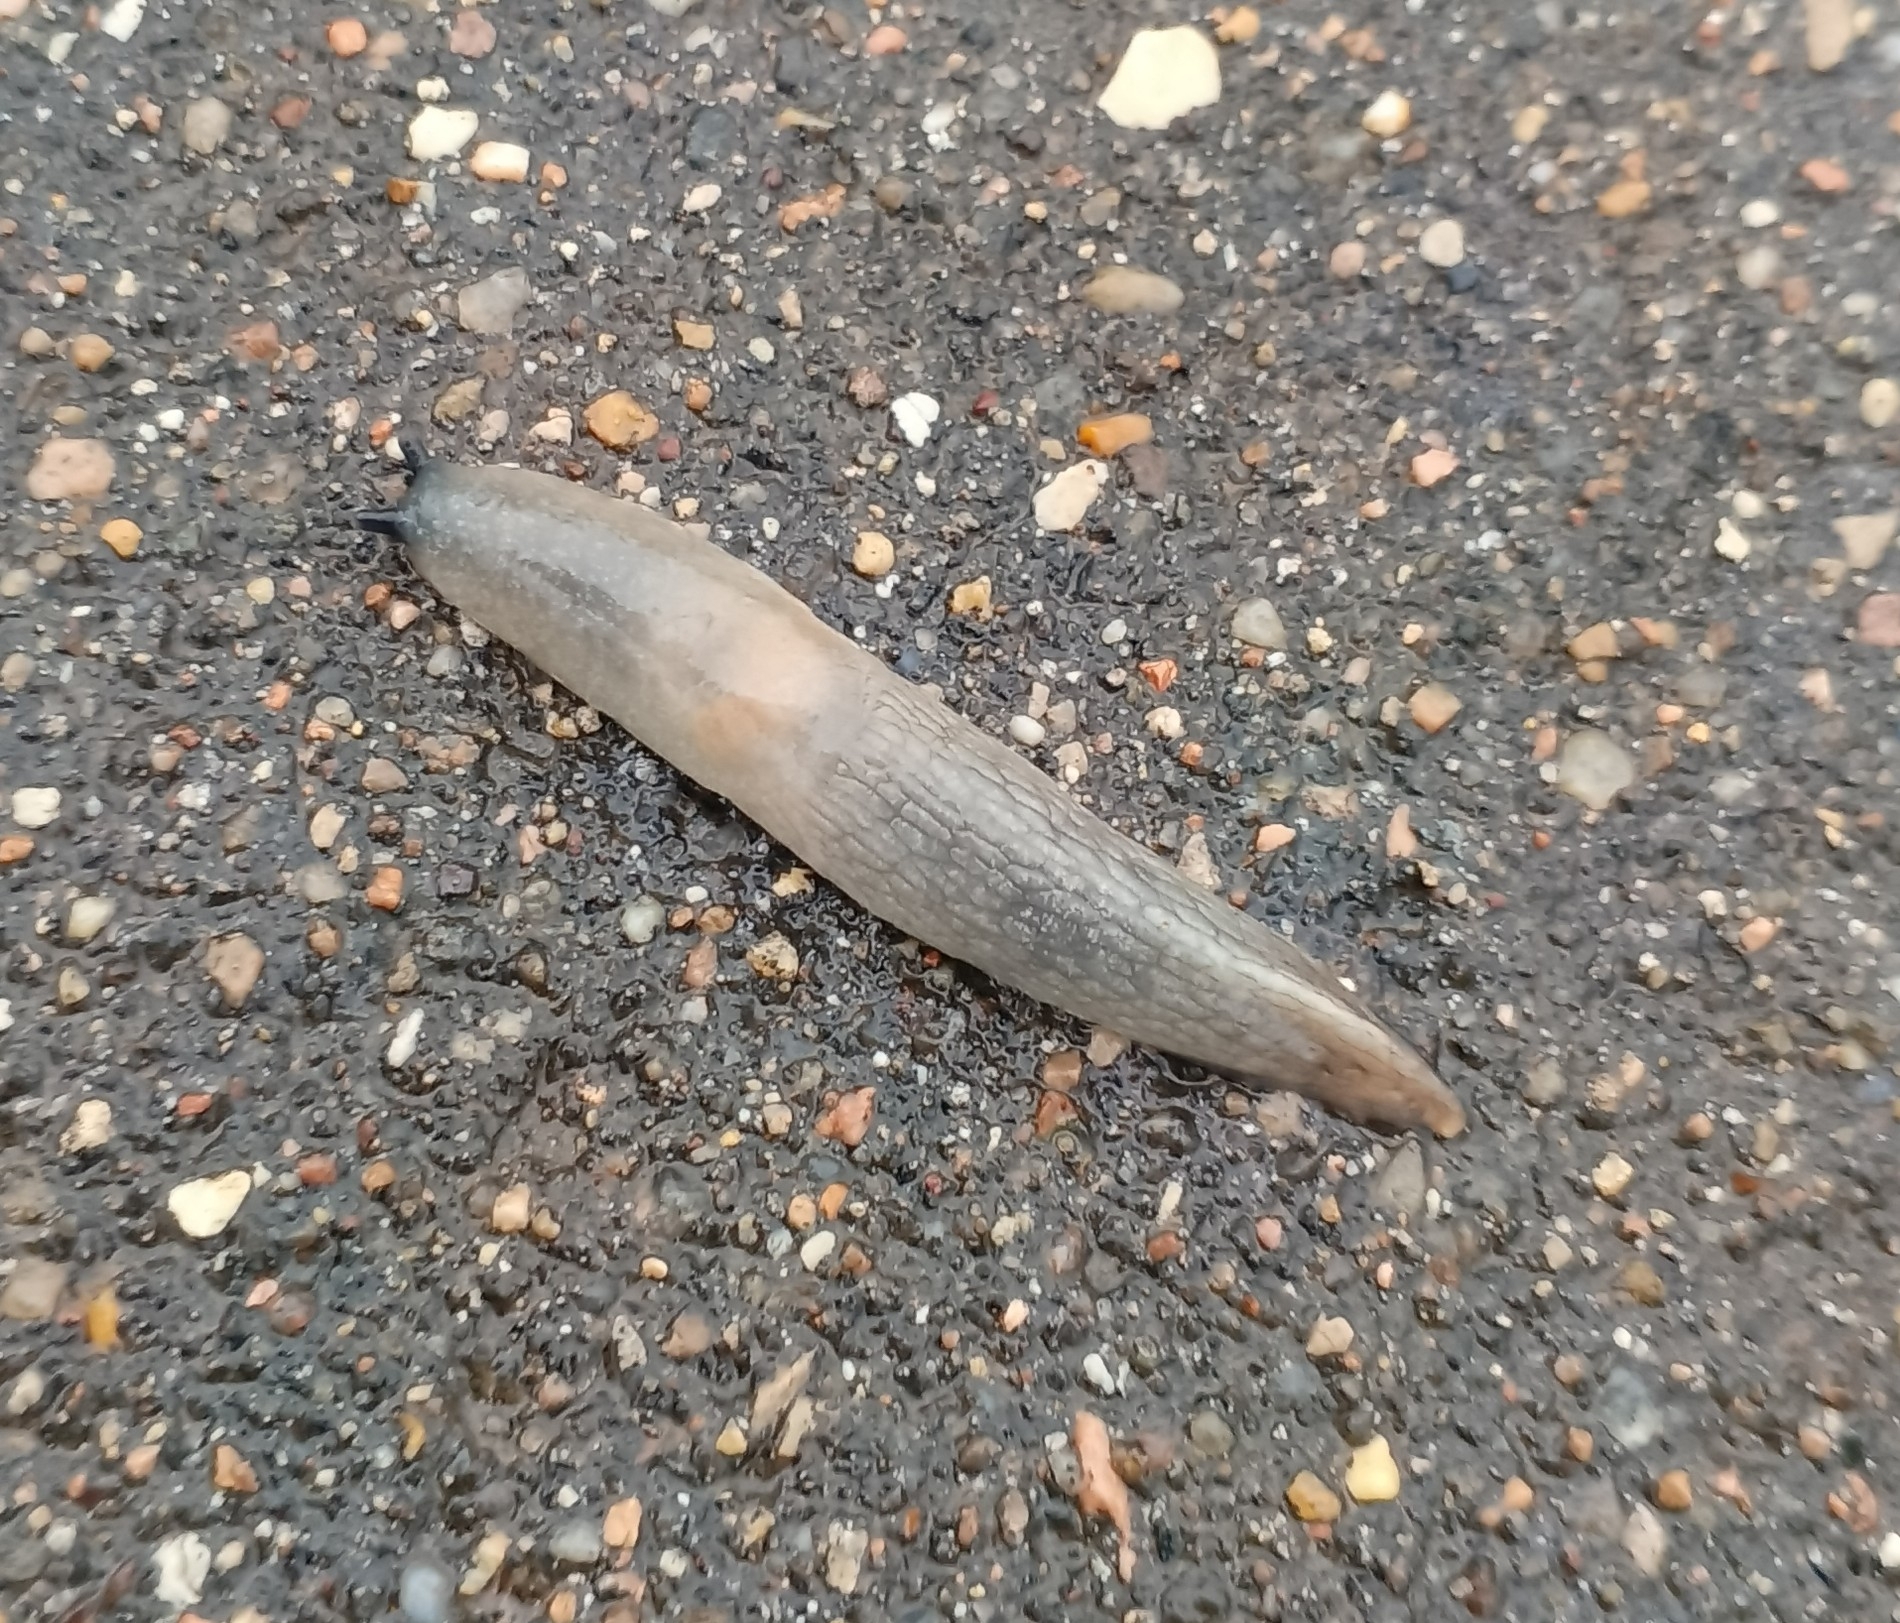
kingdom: Animalia
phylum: Mollusca
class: Gastropoda
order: Stylommatophora
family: Agriolimacidae
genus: Krynickillus
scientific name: Krynickillus melanocephalus
